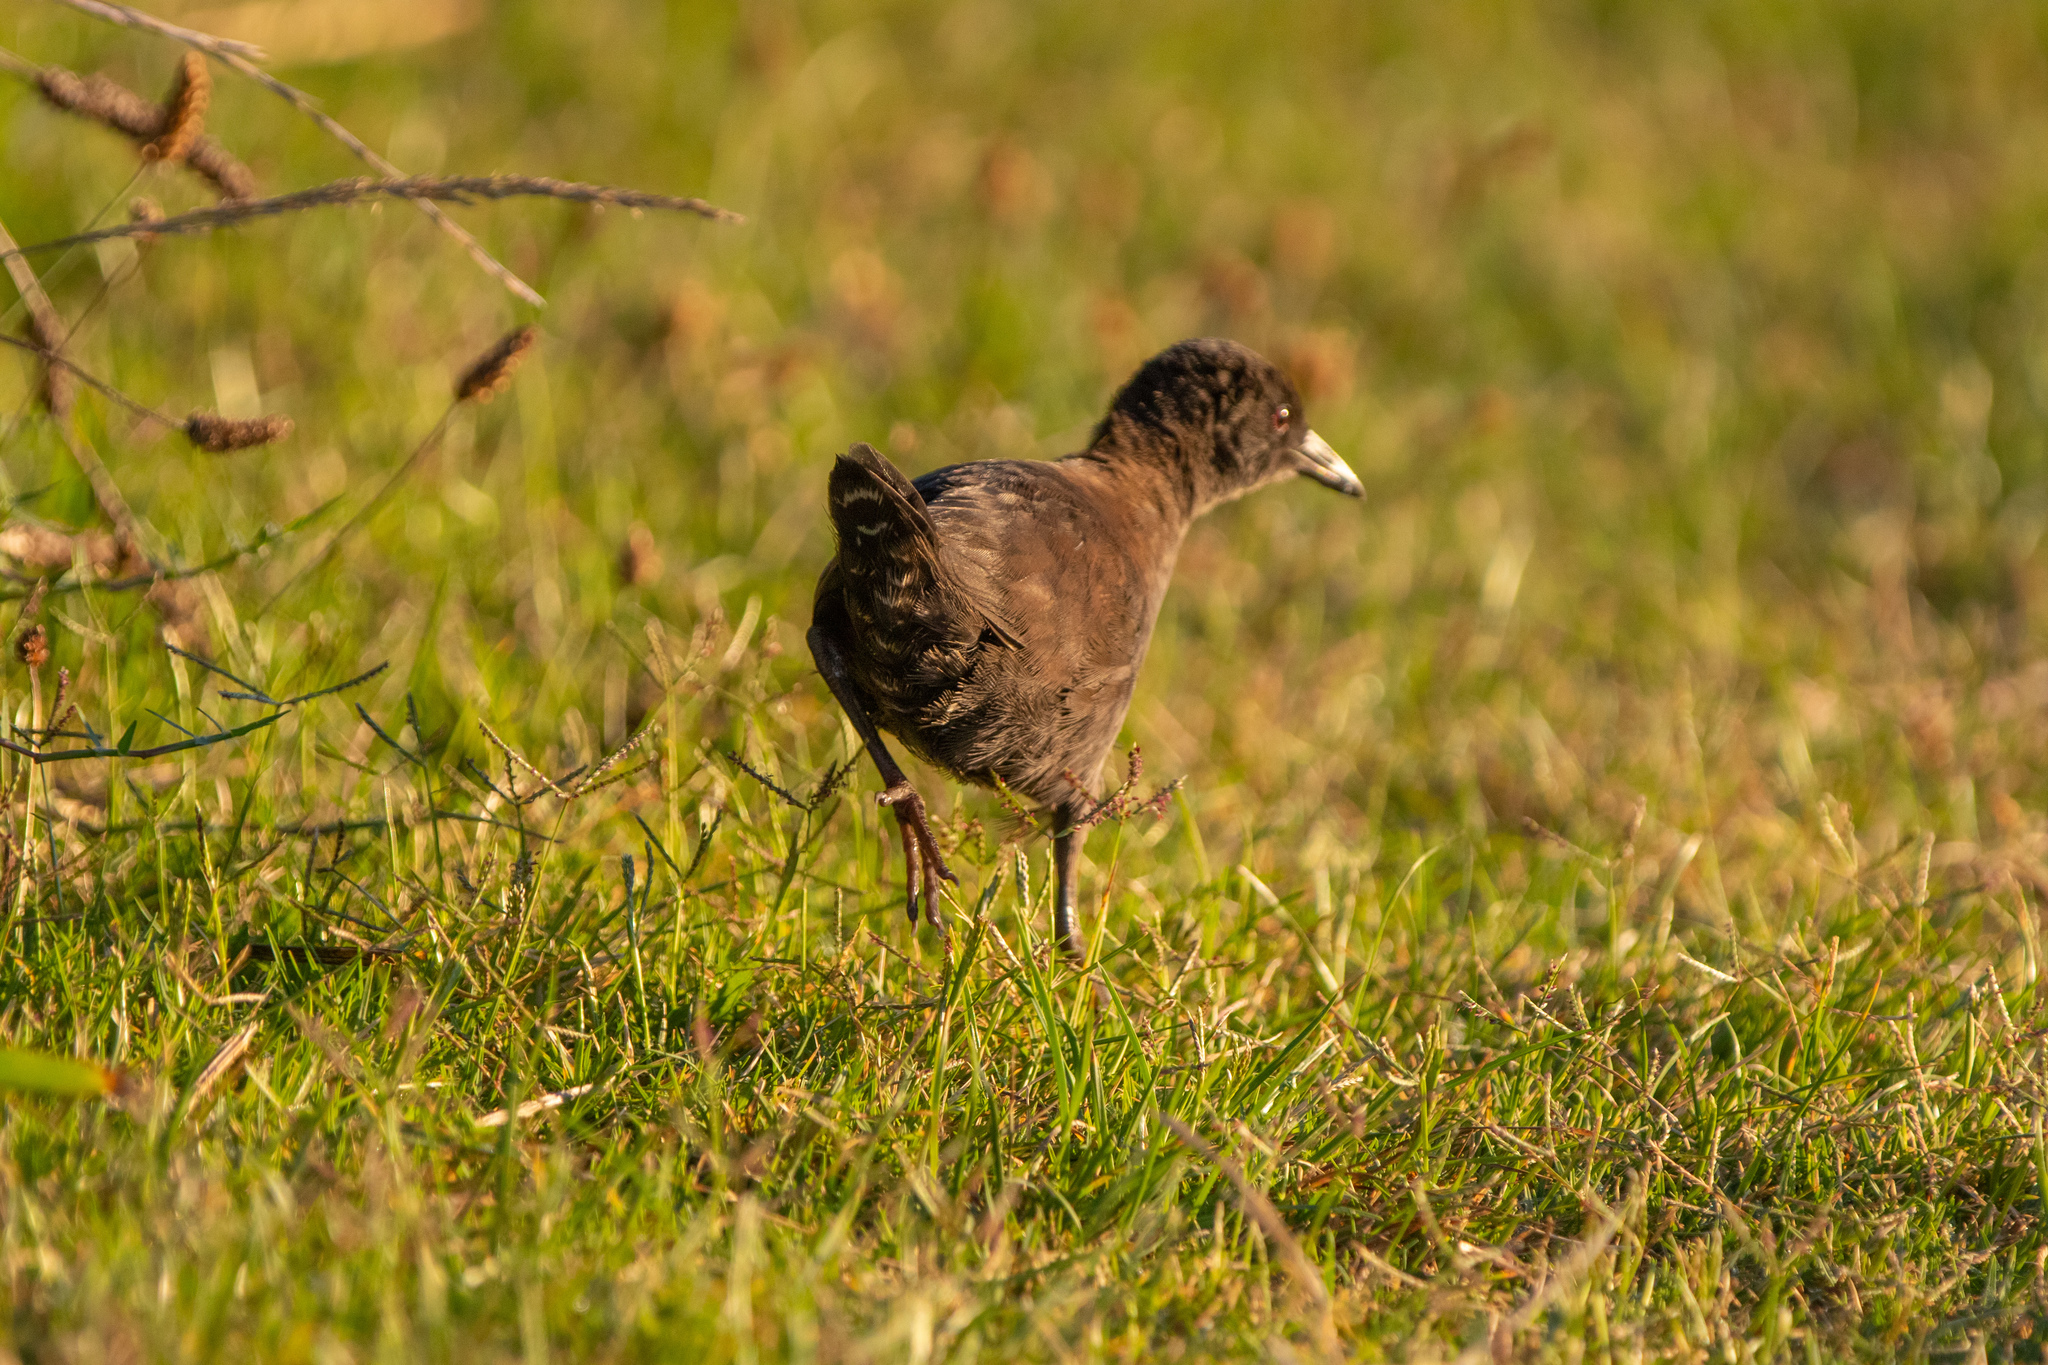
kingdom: Animalia
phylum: Chordata
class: Aves
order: Gruiformes
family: Rallidae
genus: Porzana
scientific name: Porzana tabuensis
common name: Spotless crake
